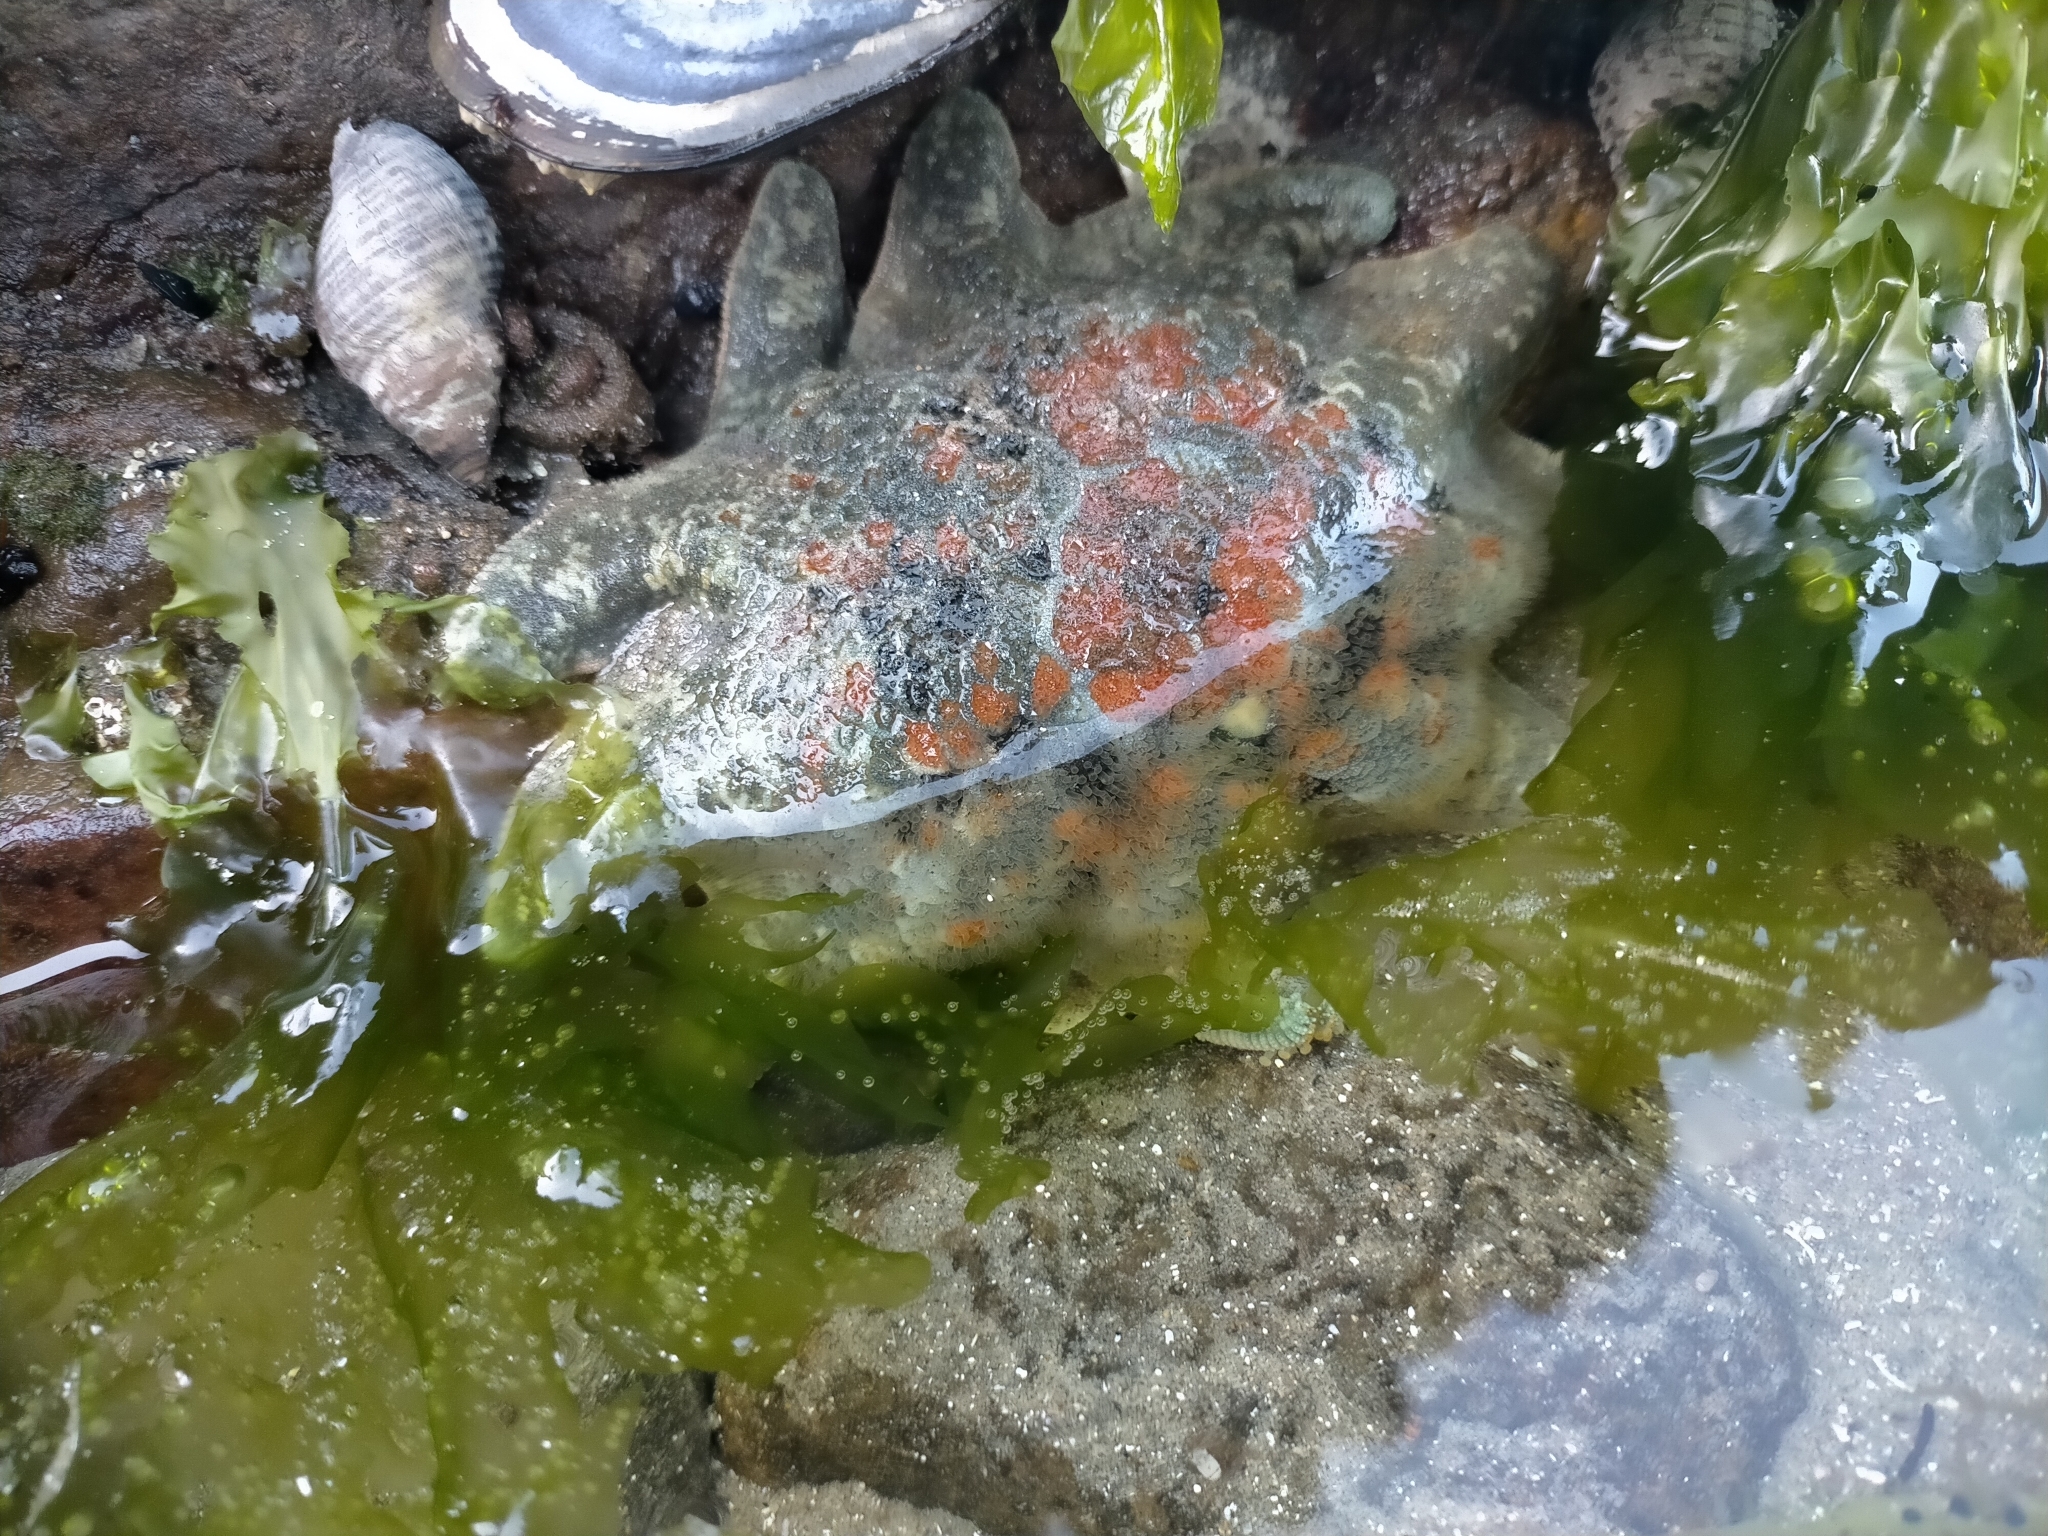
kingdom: Animalia
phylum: Echinodermata
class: Asteroidea
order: Valvatida
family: Asterinidae
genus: Meridiastra
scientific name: Meridiastra calcar
